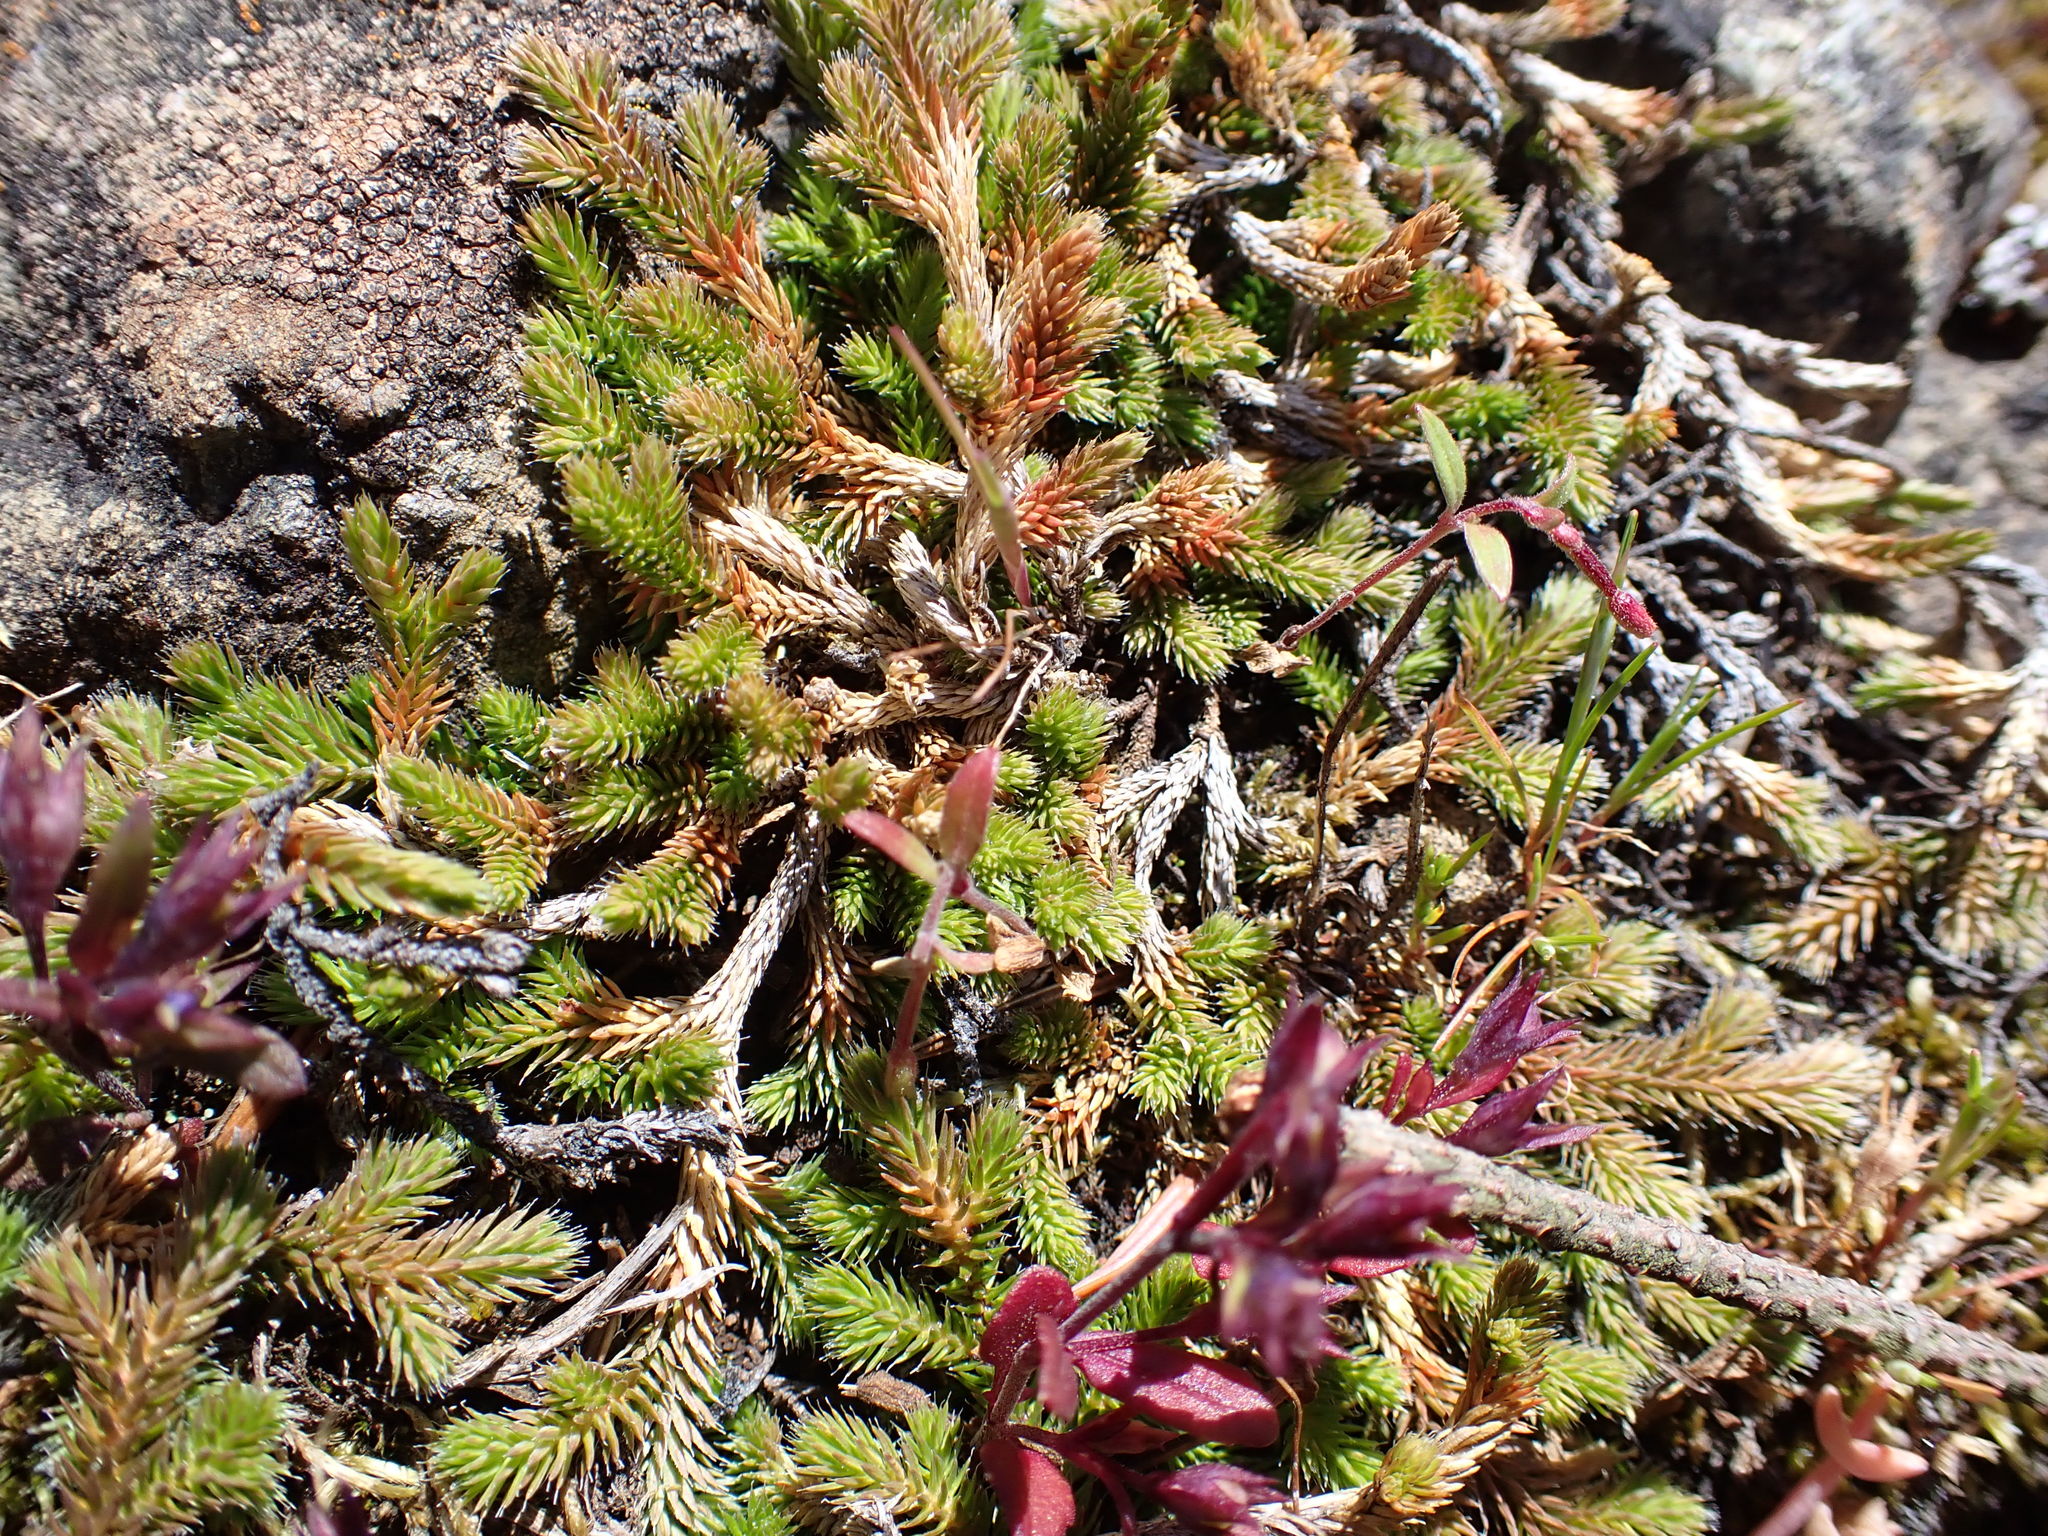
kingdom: Plantae
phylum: Tracheophyta
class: Lycopodiopsida
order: Selaginellales
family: Selaginellaceae
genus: Selaginella
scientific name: Selaginella wallacei
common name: Wallace's selaginella
